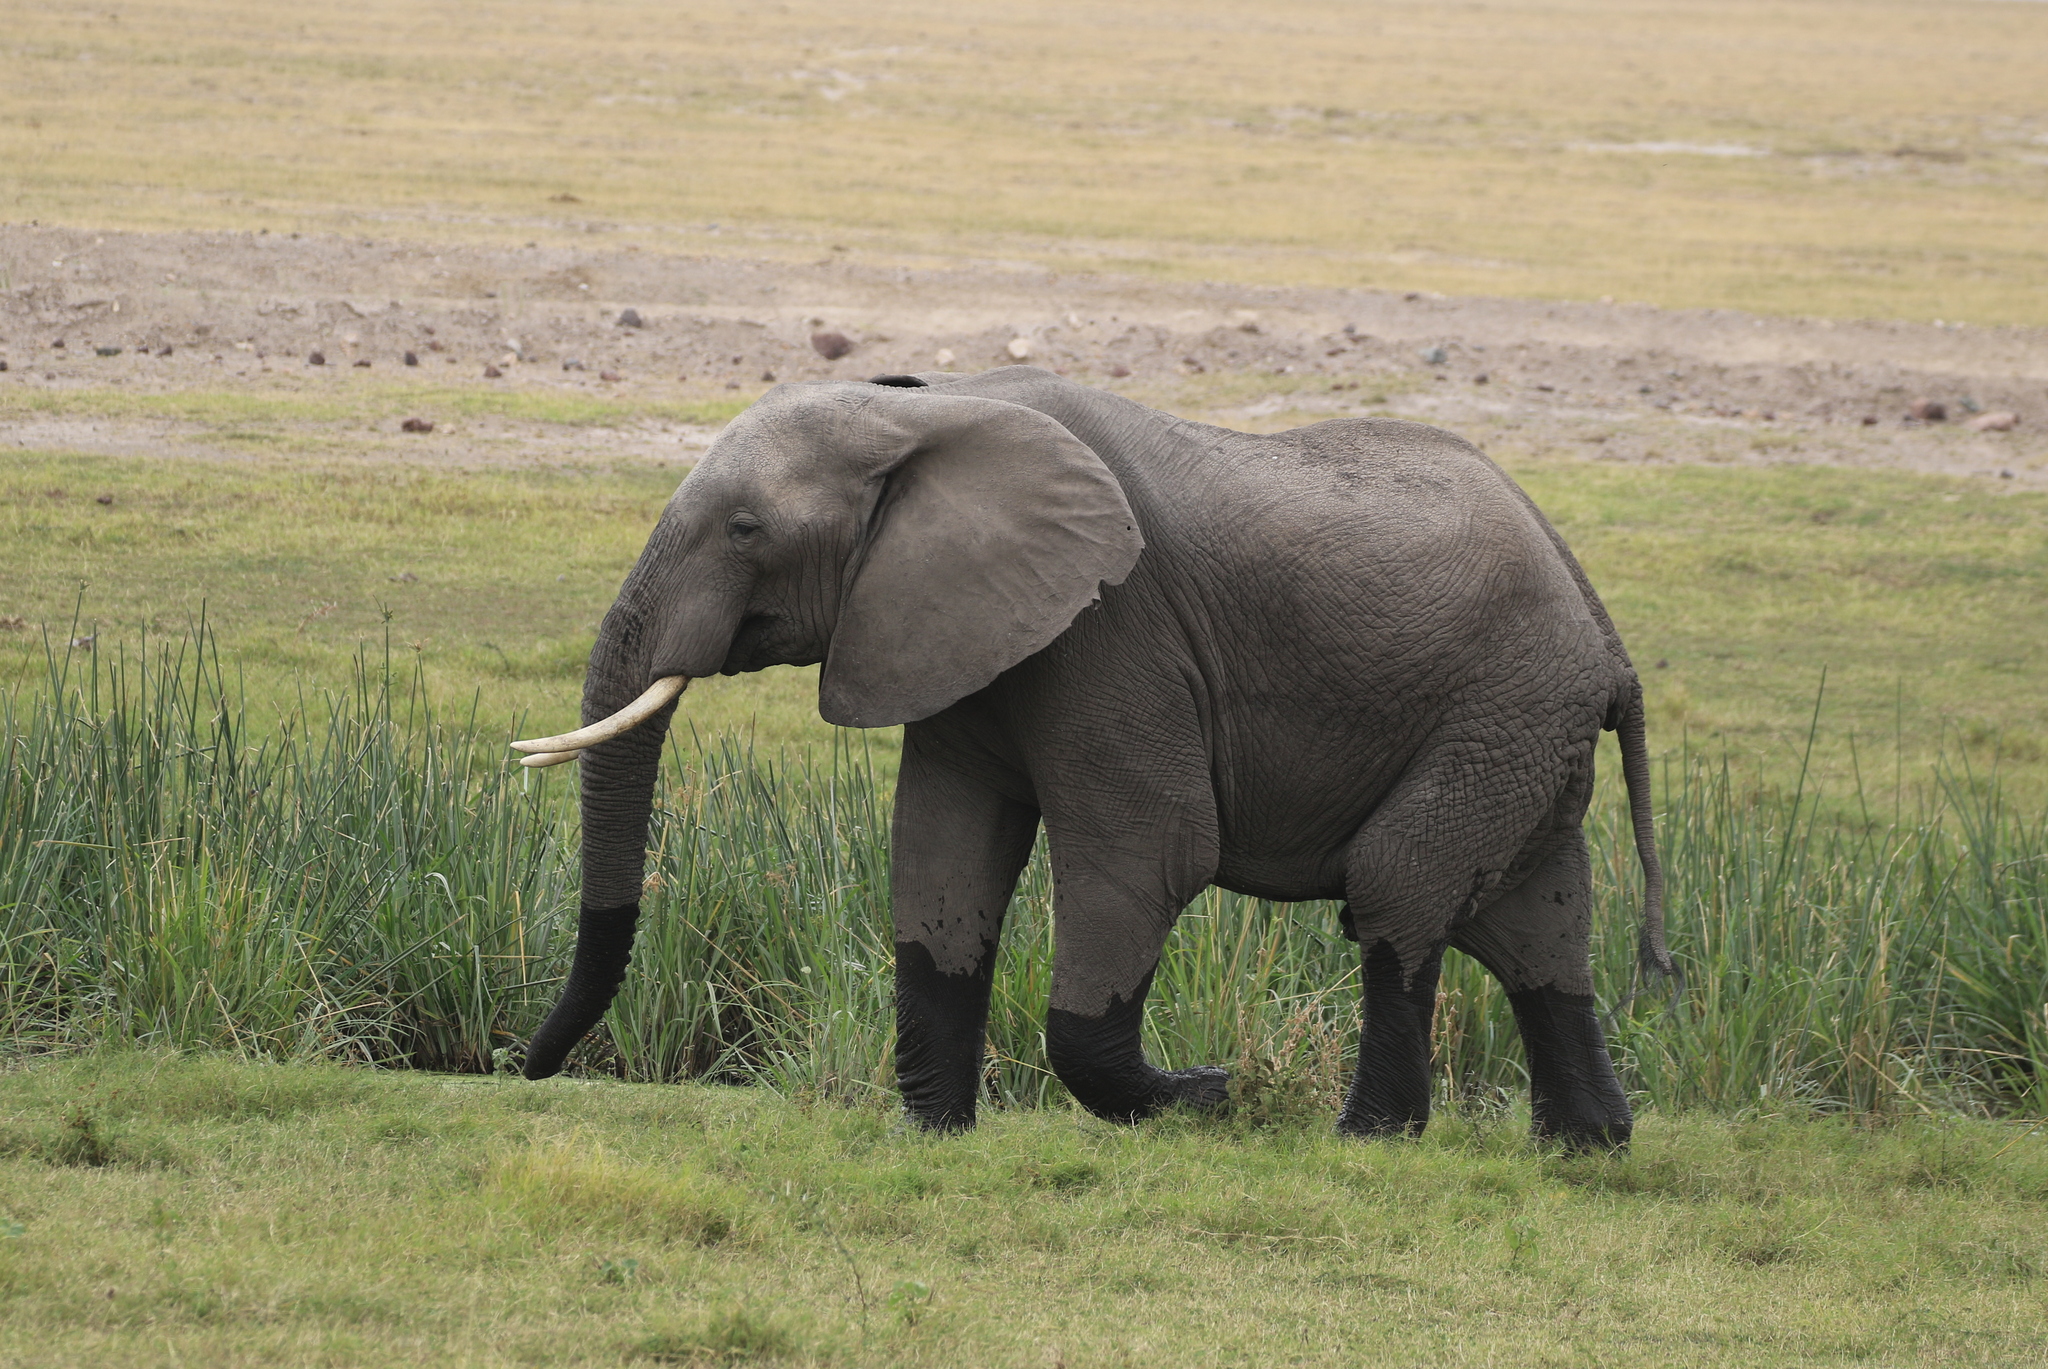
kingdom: Animalia
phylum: Chordata
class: Mammalia
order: Proboscidea
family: Elephantidae
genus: Loxodonta
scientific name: Loxodonta africana
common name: African elephant
